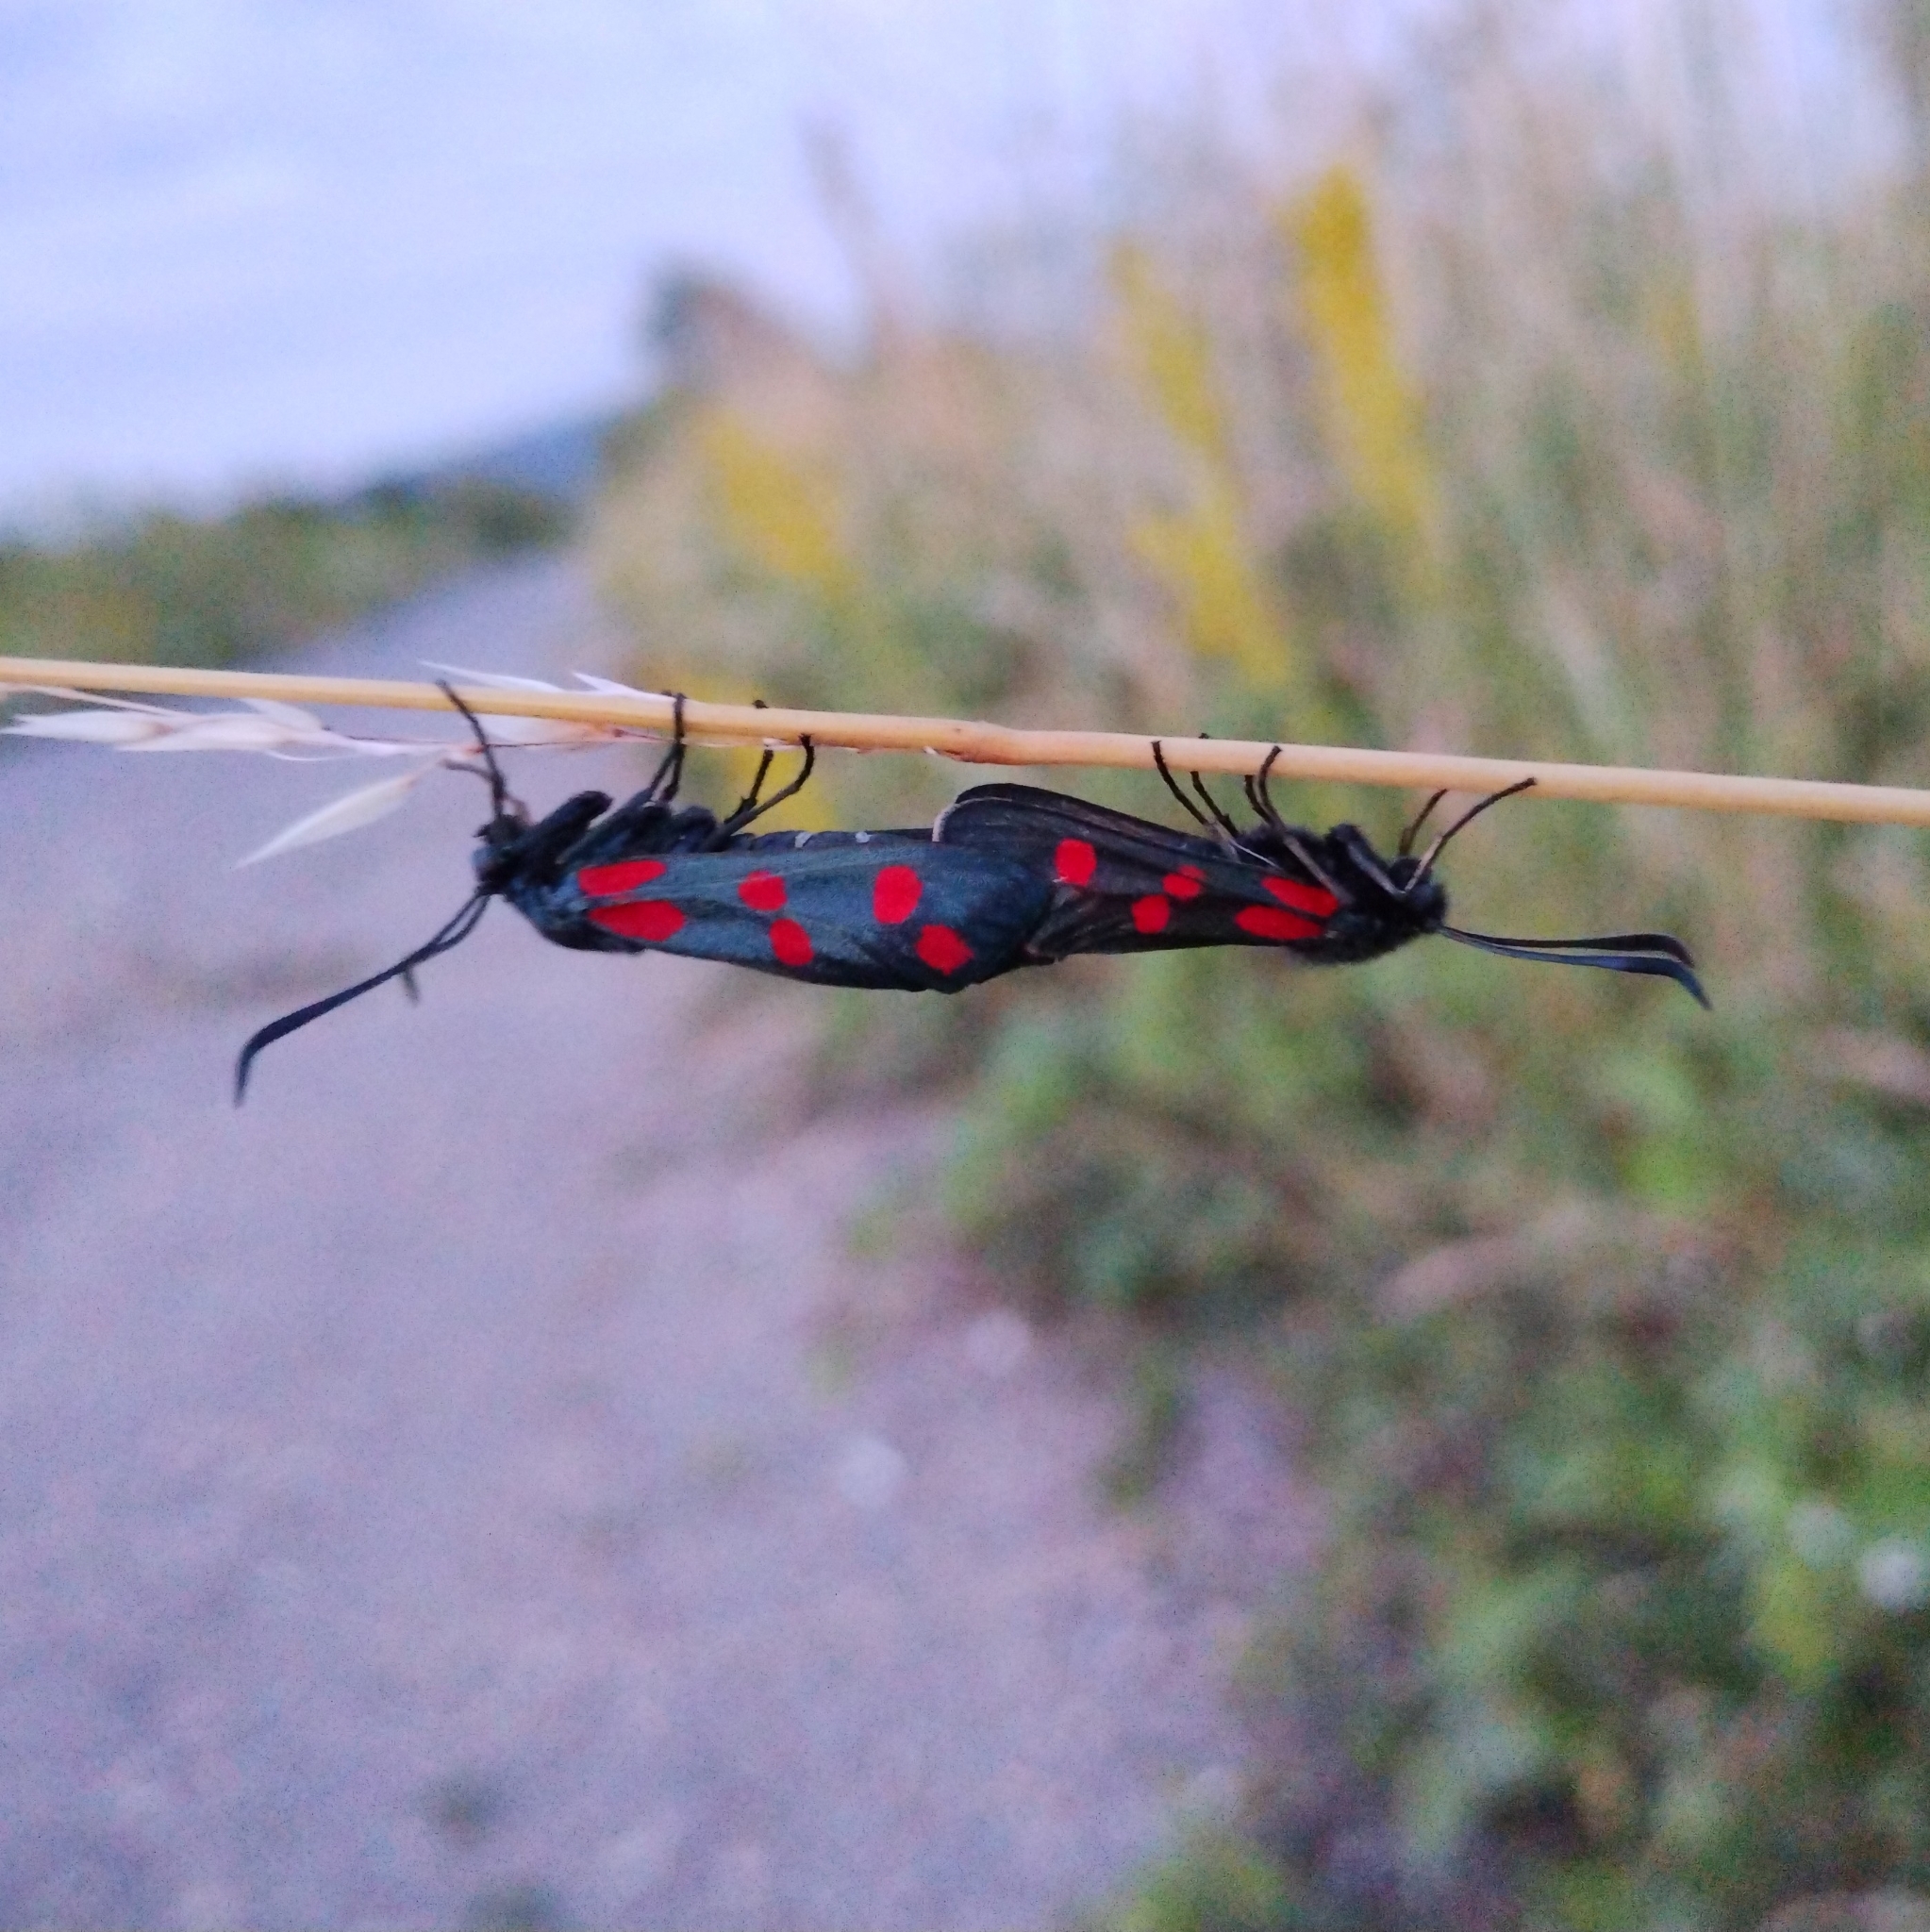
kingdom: Animalia
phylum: Arthropoda
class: Insecta
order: Lepidoptera
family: Zygaenidae
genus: Zygaena
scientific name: Zygaena filipendulae
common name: Six-spot burnet
